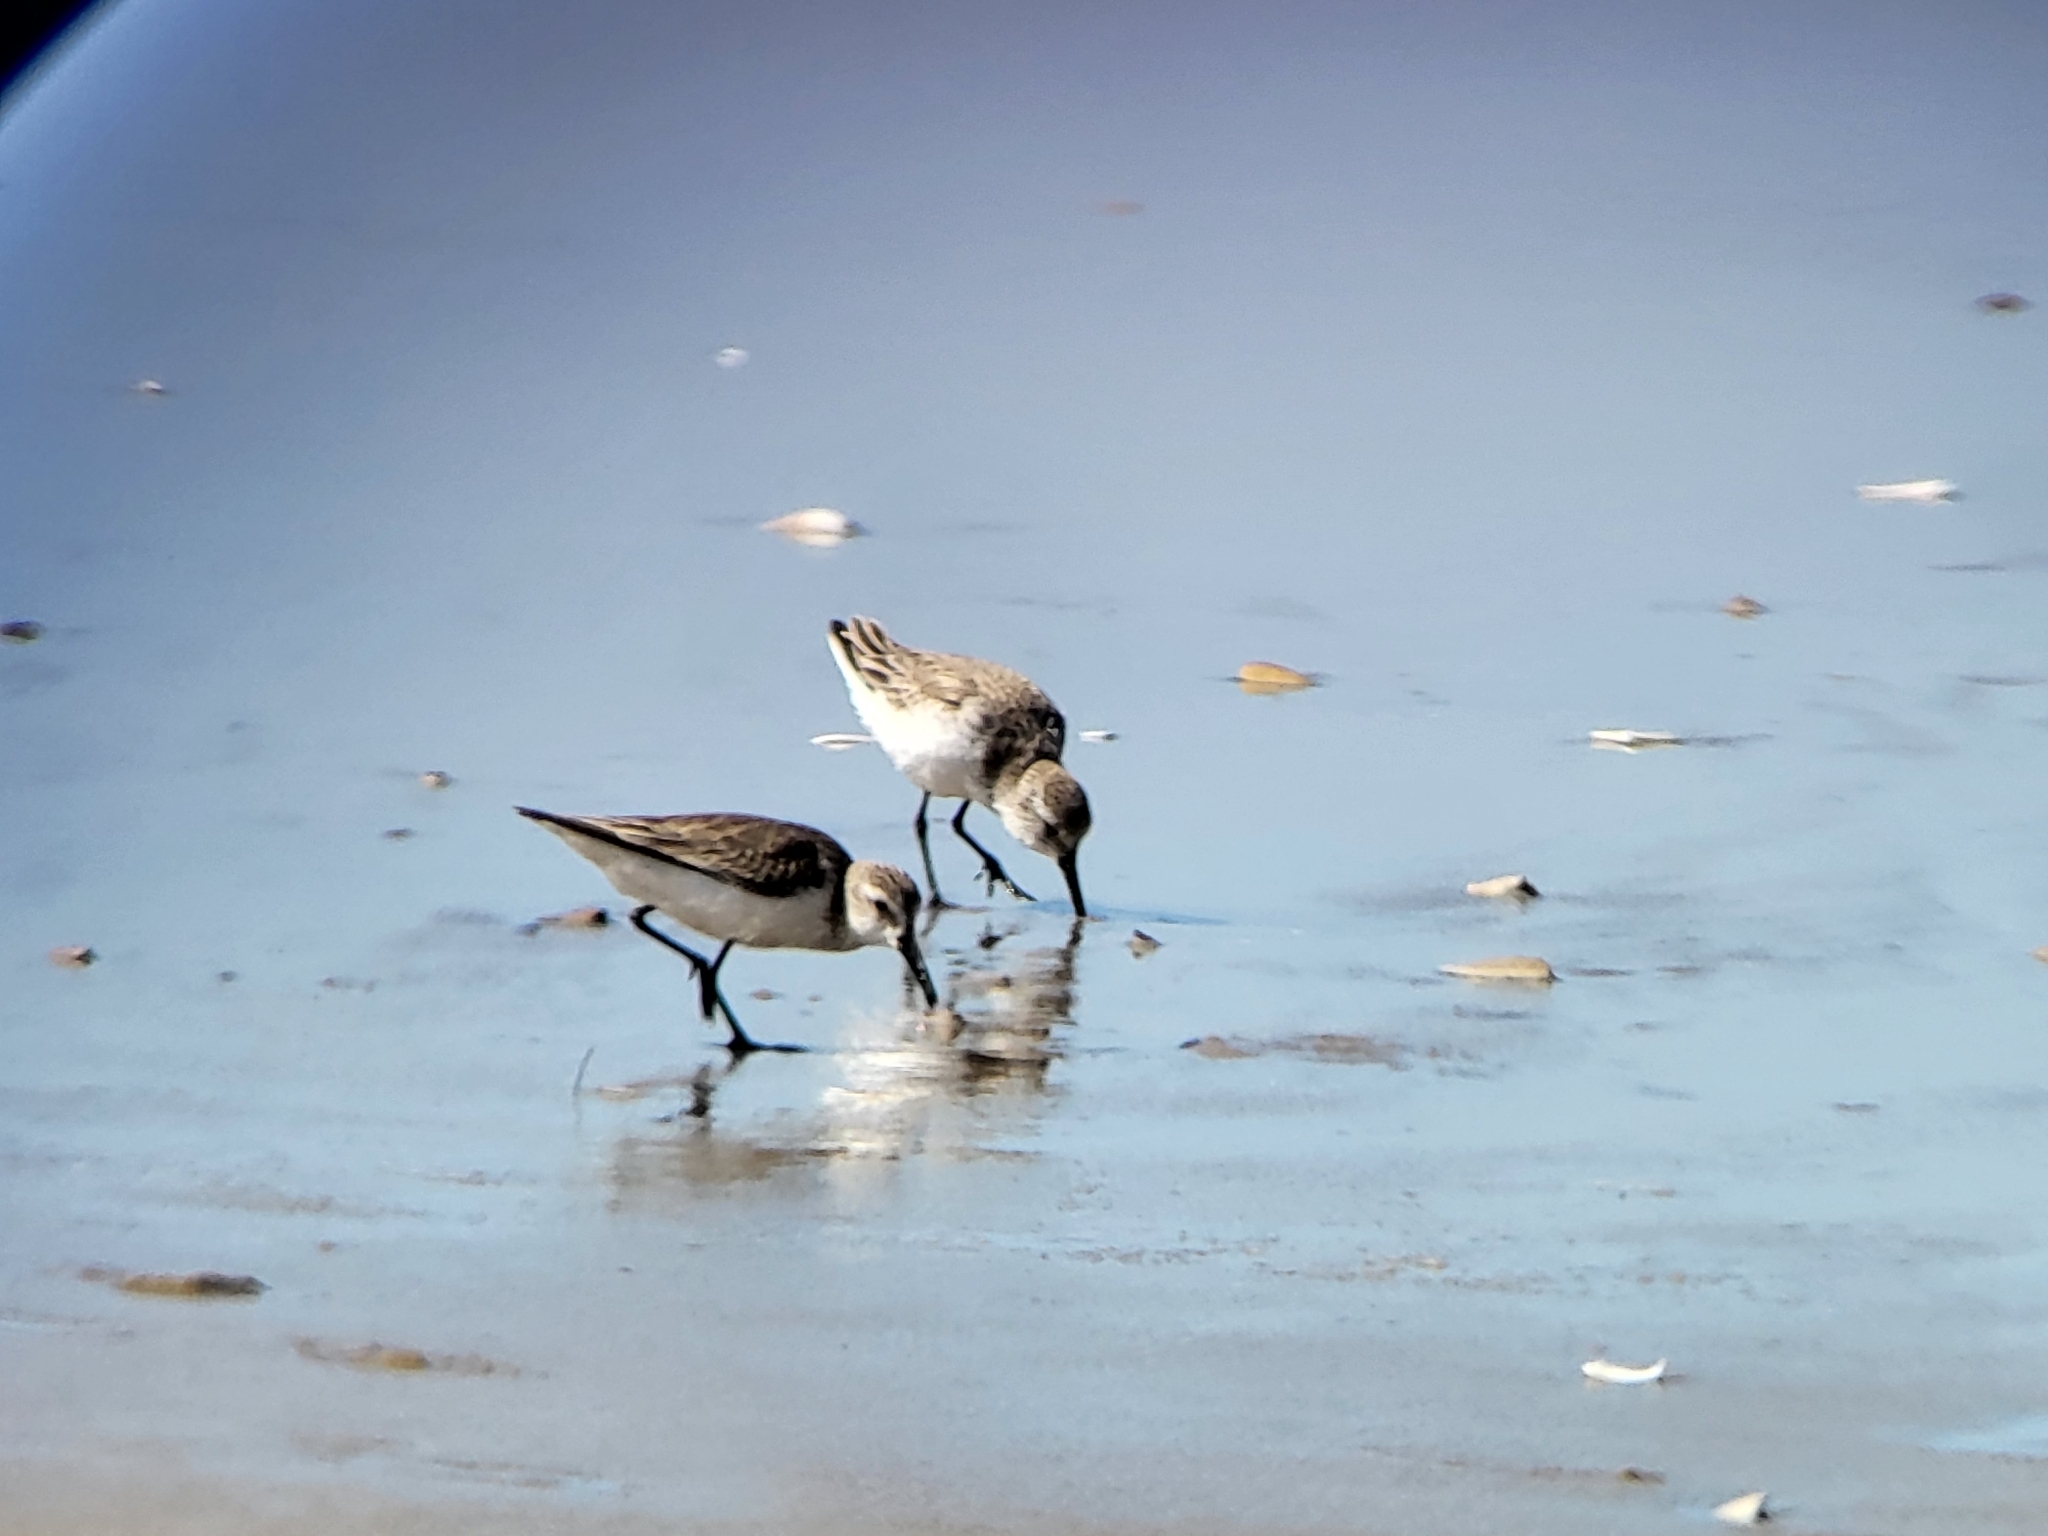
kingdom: Animalia
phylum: Chordata
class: Aves
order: Charadriiformes
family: Scolopacidae
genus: Calidris
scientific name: Calidris mauri
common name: Western sandpiper
